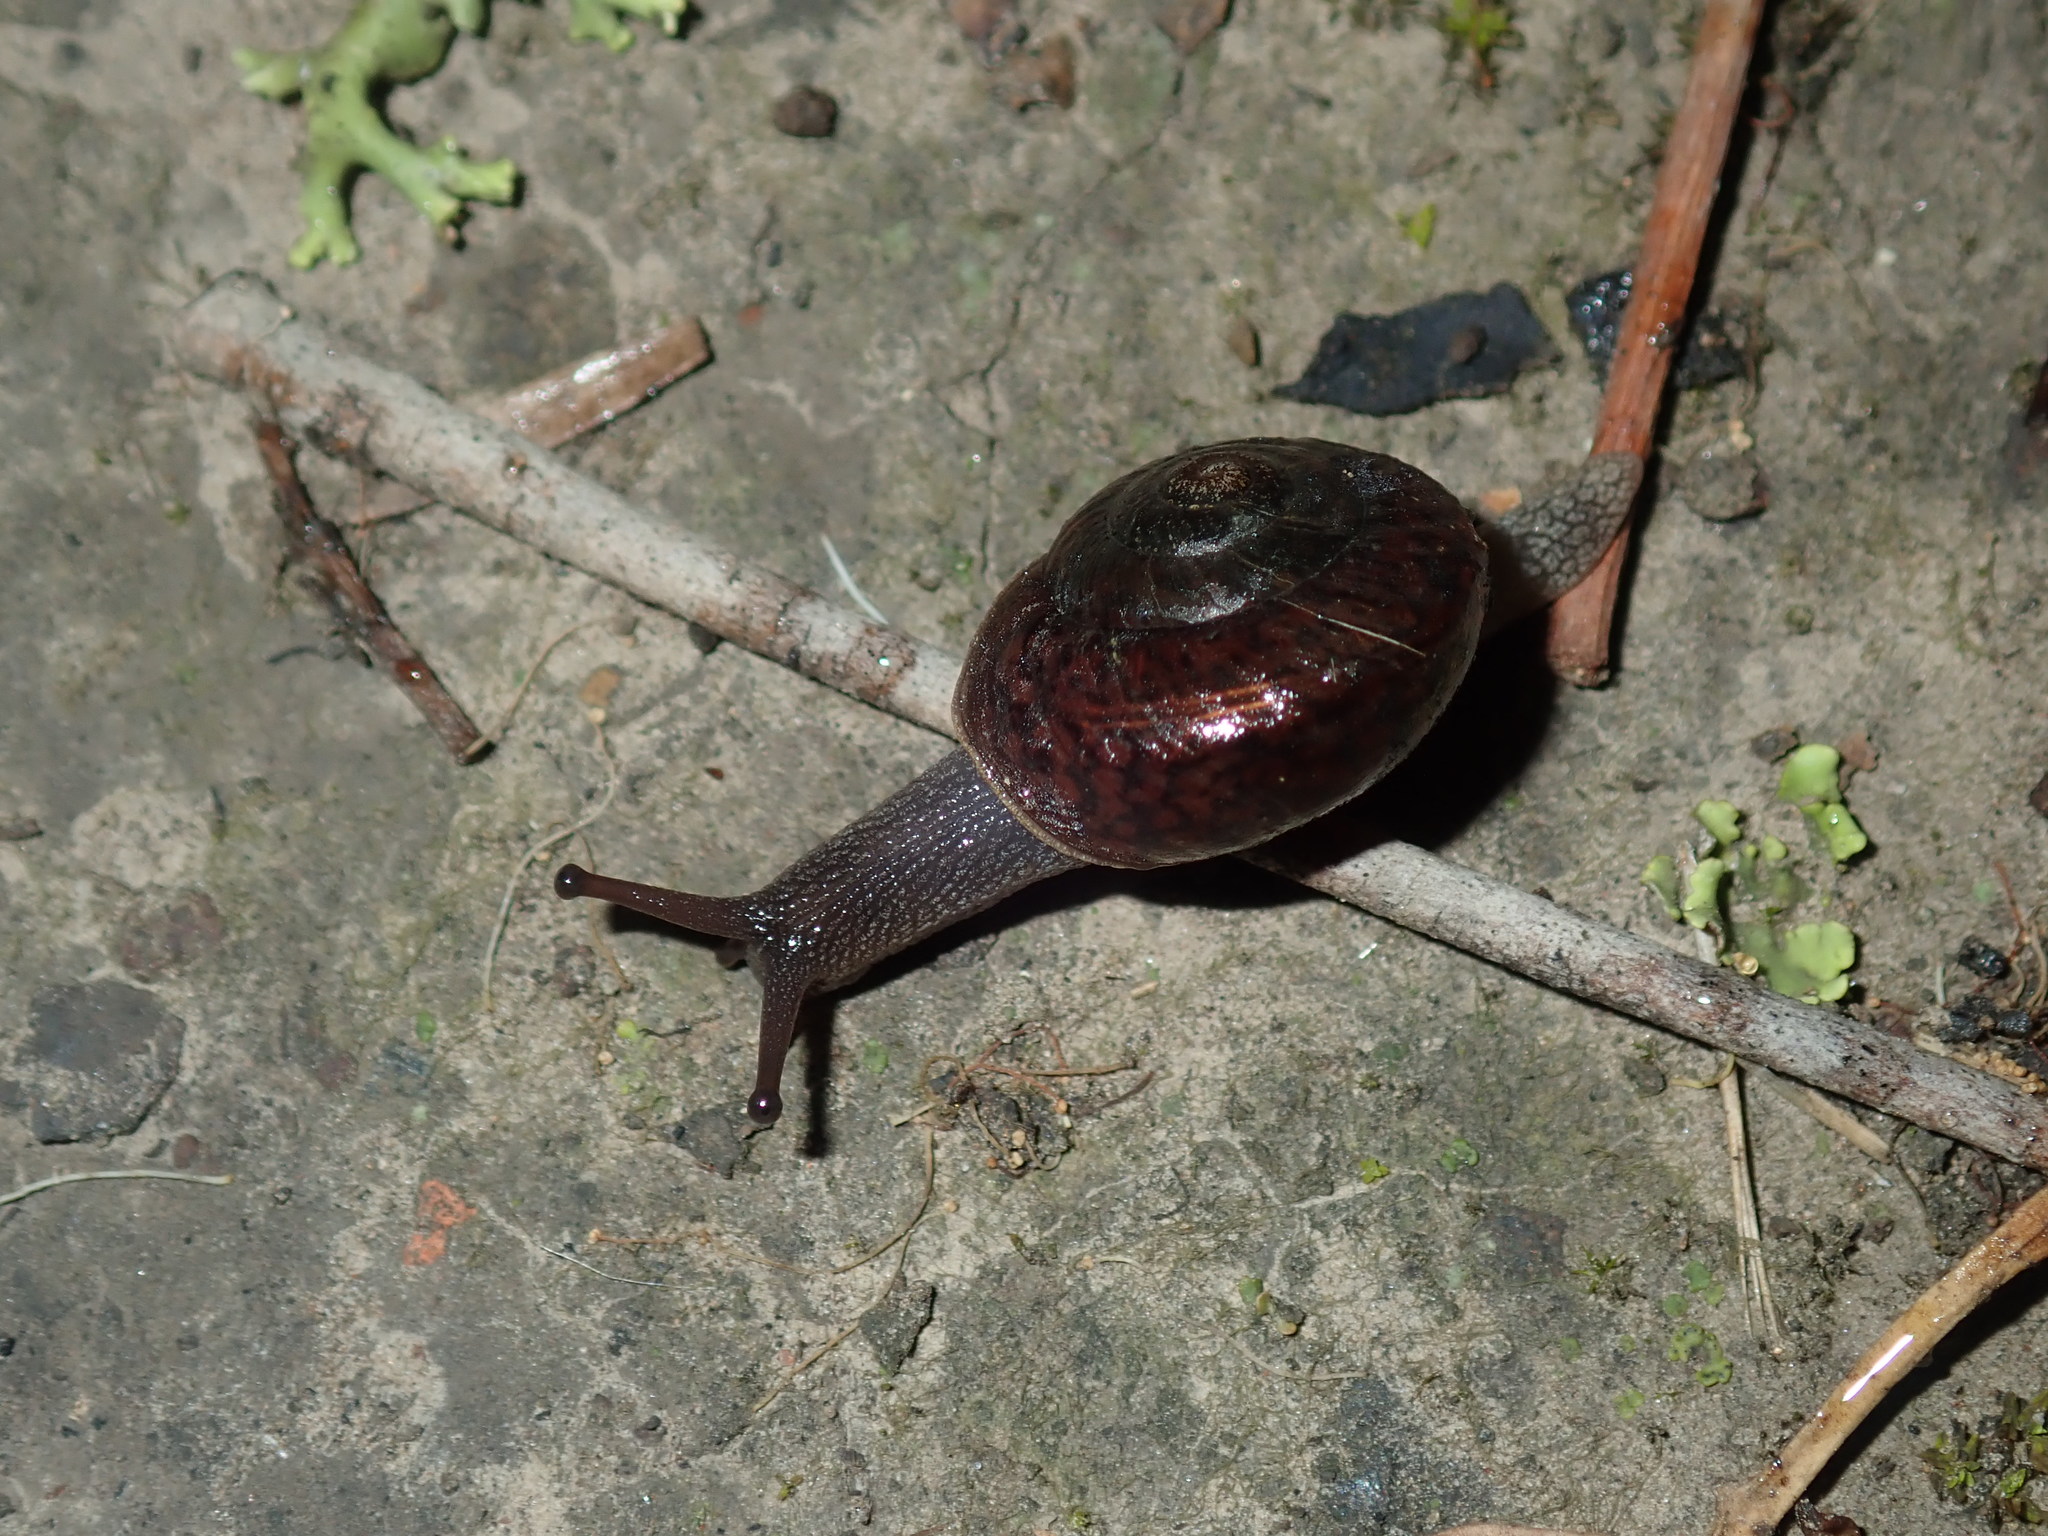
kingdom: Animalia
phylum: Mollusca
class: Gastropoda
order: Stylommatophora
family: Camaenidae
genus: Sauroconcha
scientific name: Sauroconcha sheai
